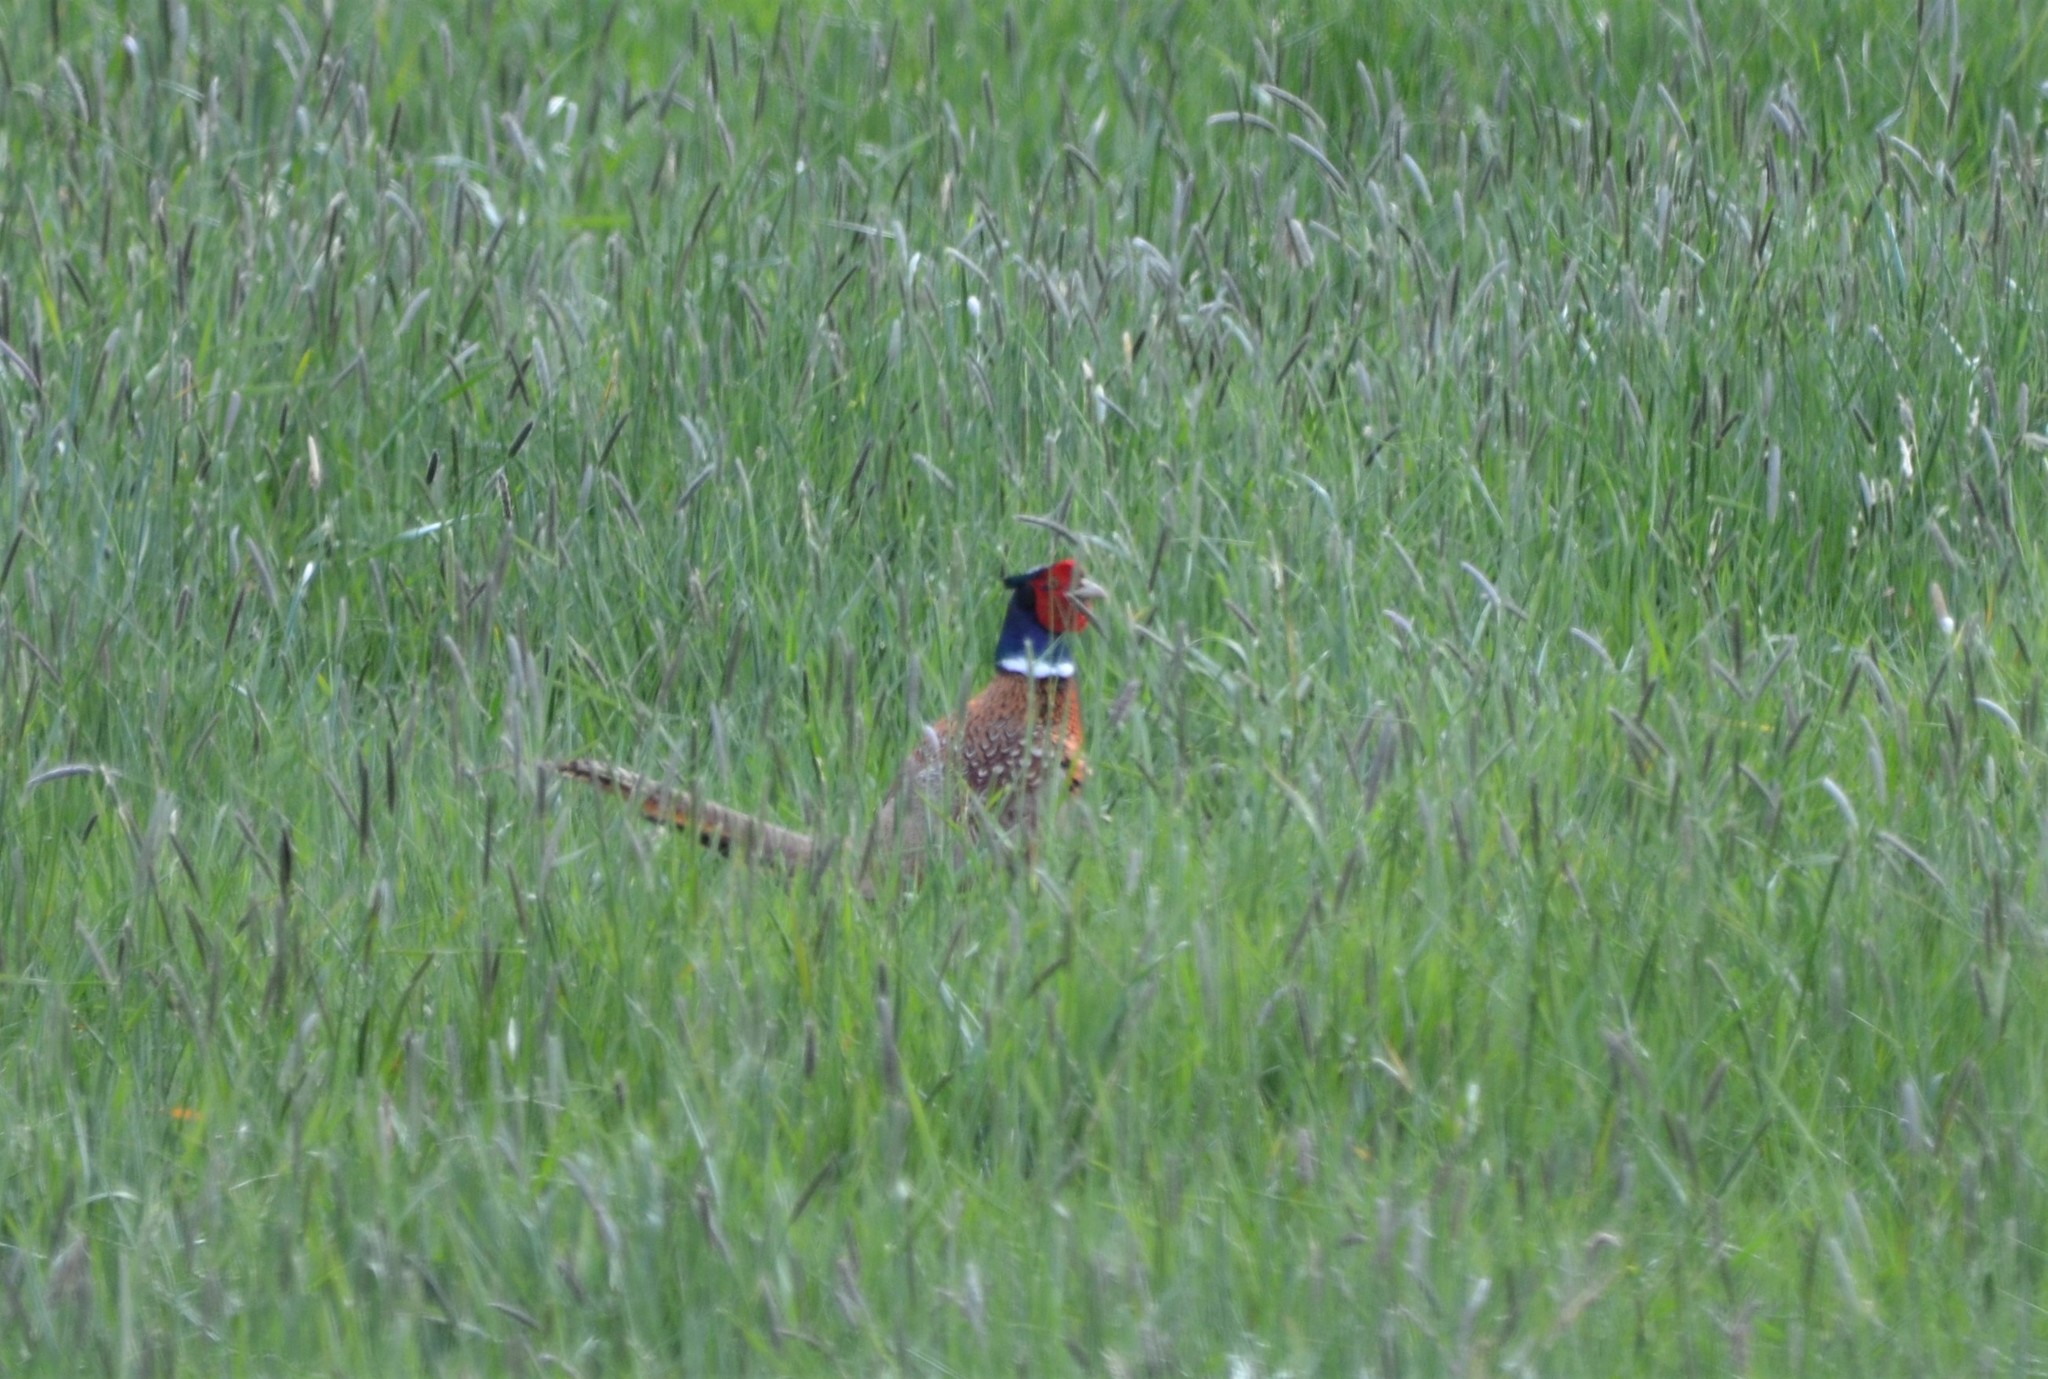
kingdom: Animalia
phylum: Chordata
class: Aves
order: Galliformes
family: Phasianidae
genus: Phasianus
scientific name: Phasianus colchicus
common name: Common pheasant
